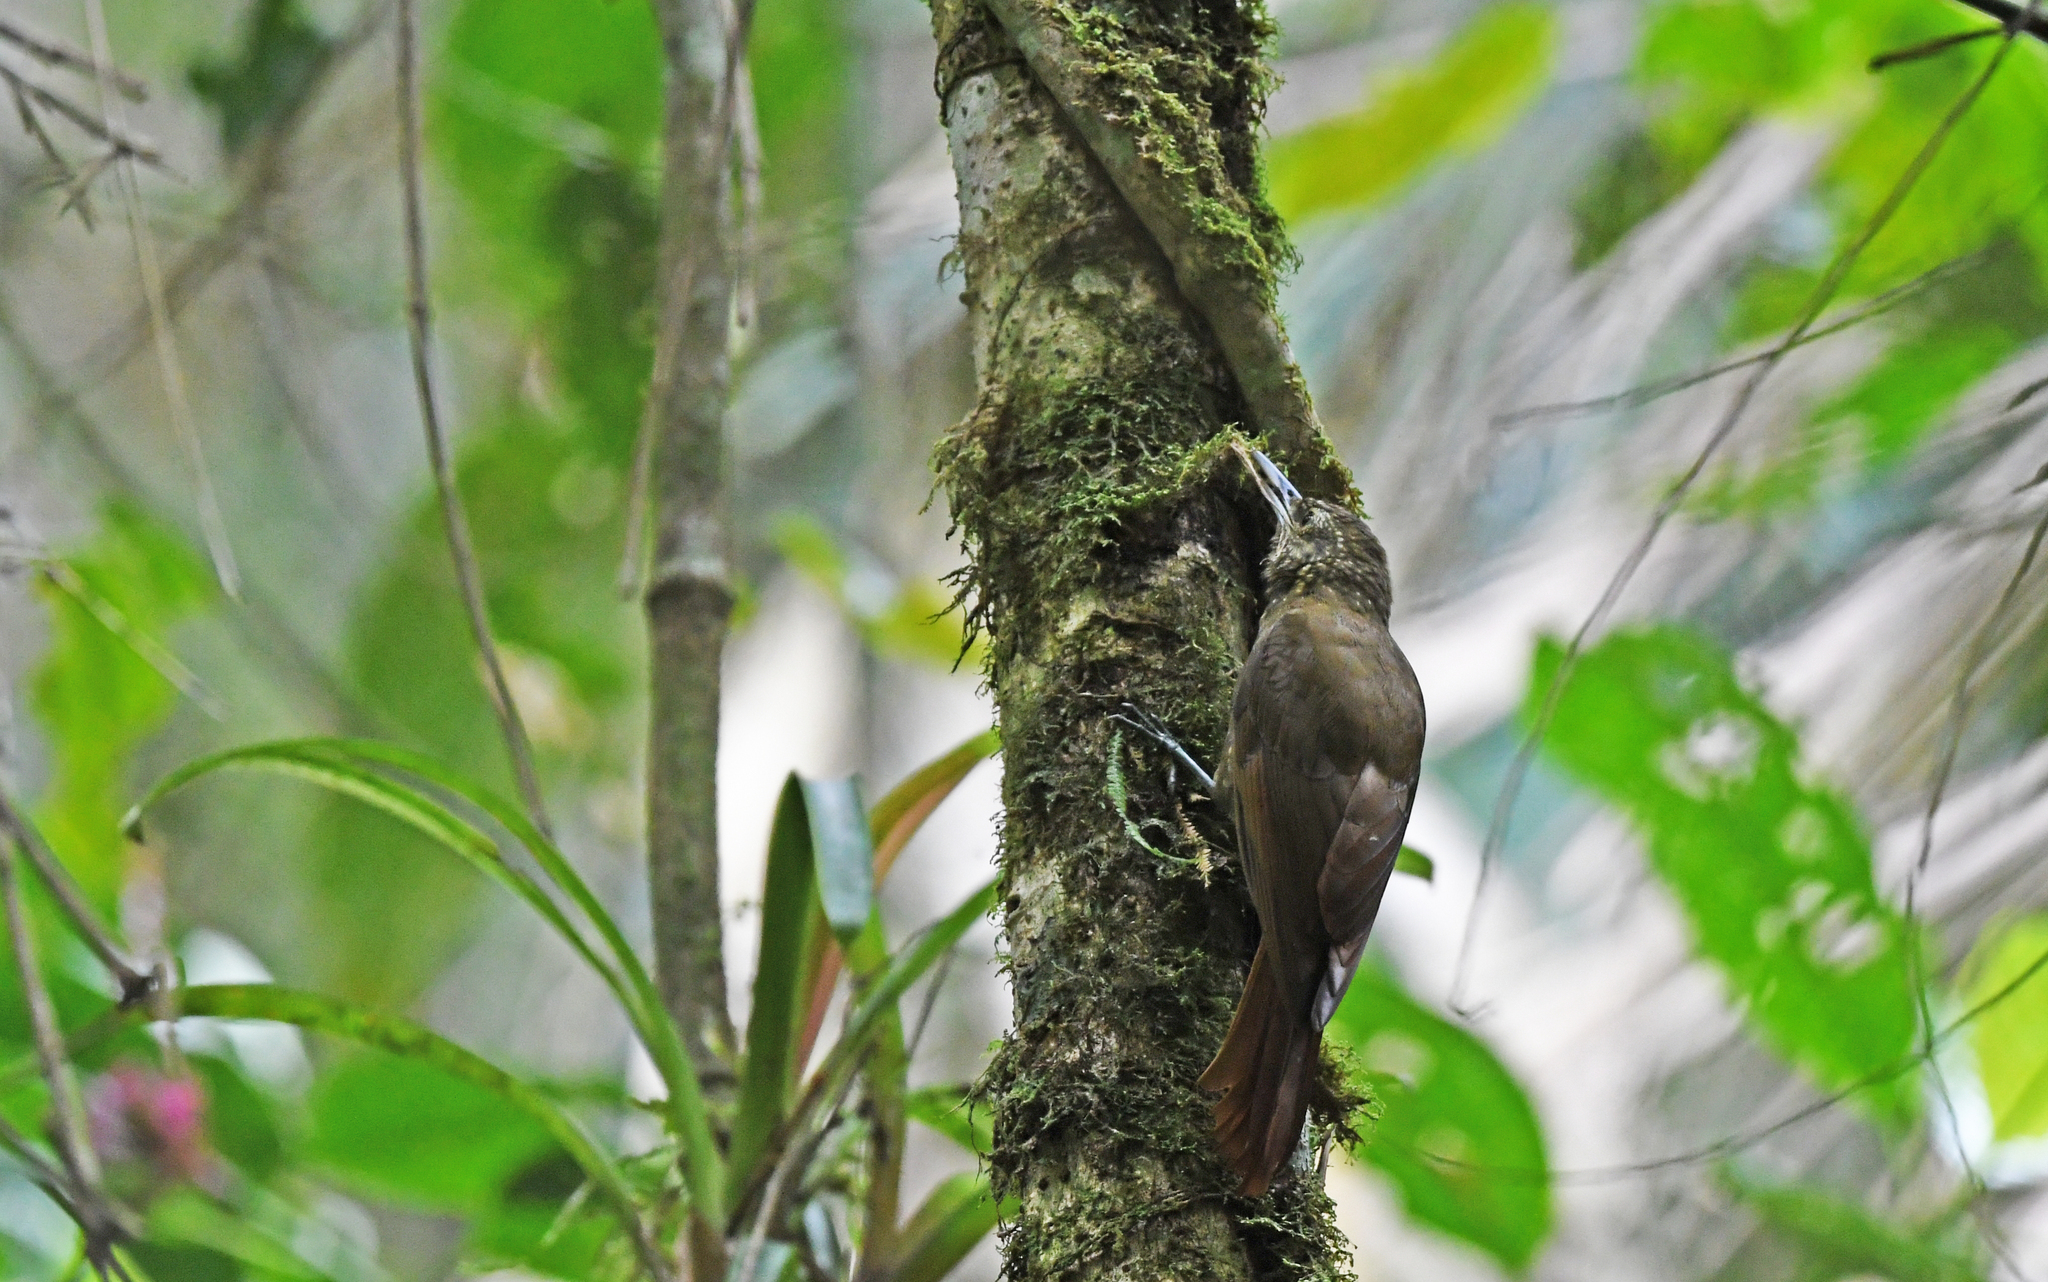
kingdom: Animalia
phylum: Chordata
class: Aves
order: Passeriformes
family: Furnariidae
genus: Xiphorhynchus
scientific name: Xiphorhynchus triangularis
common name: Olive-backed woodcreeper
